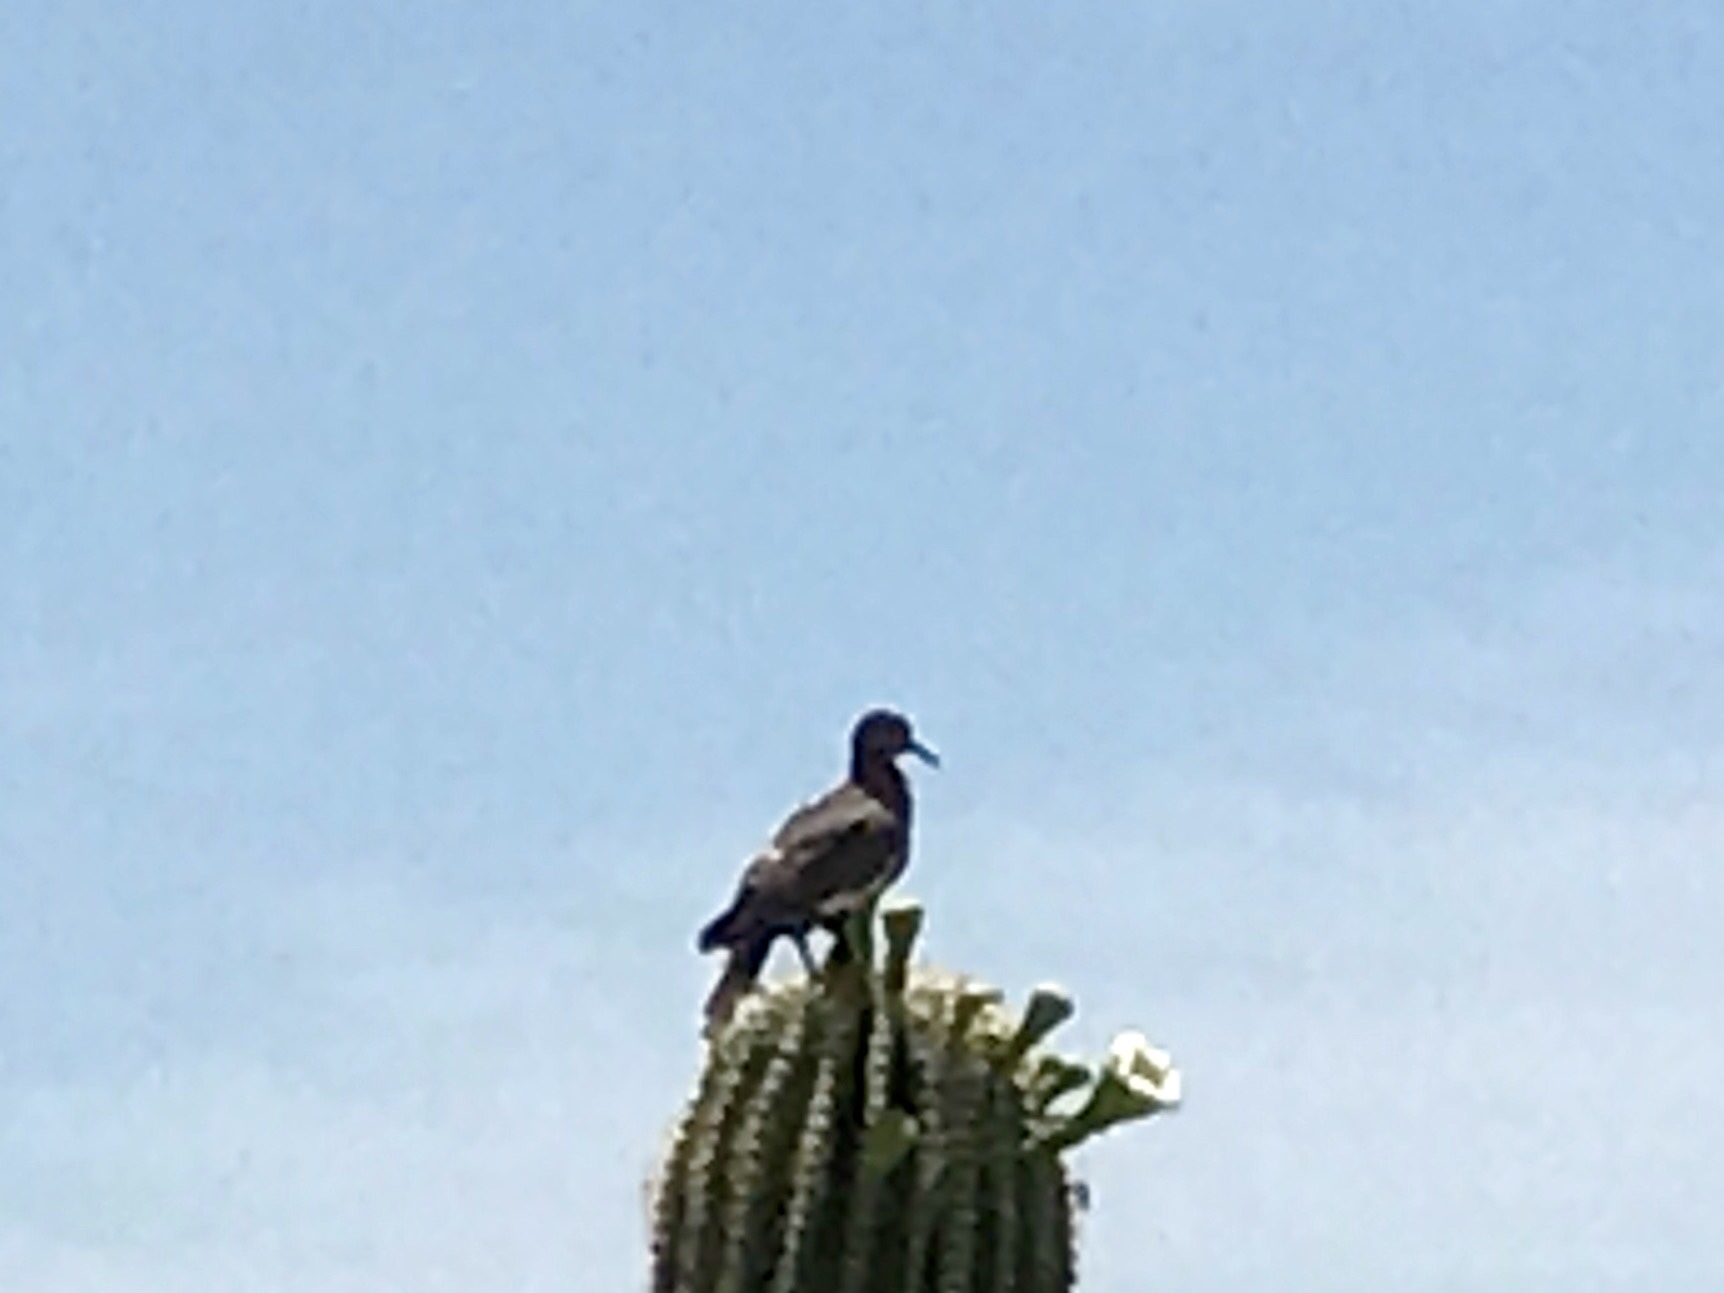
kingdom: Animalia
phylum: Chordata
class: Aves
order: Columbiformes
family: Columbidae
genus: Zenaida
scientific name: Zenaida asiatica
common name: White-winged dove
